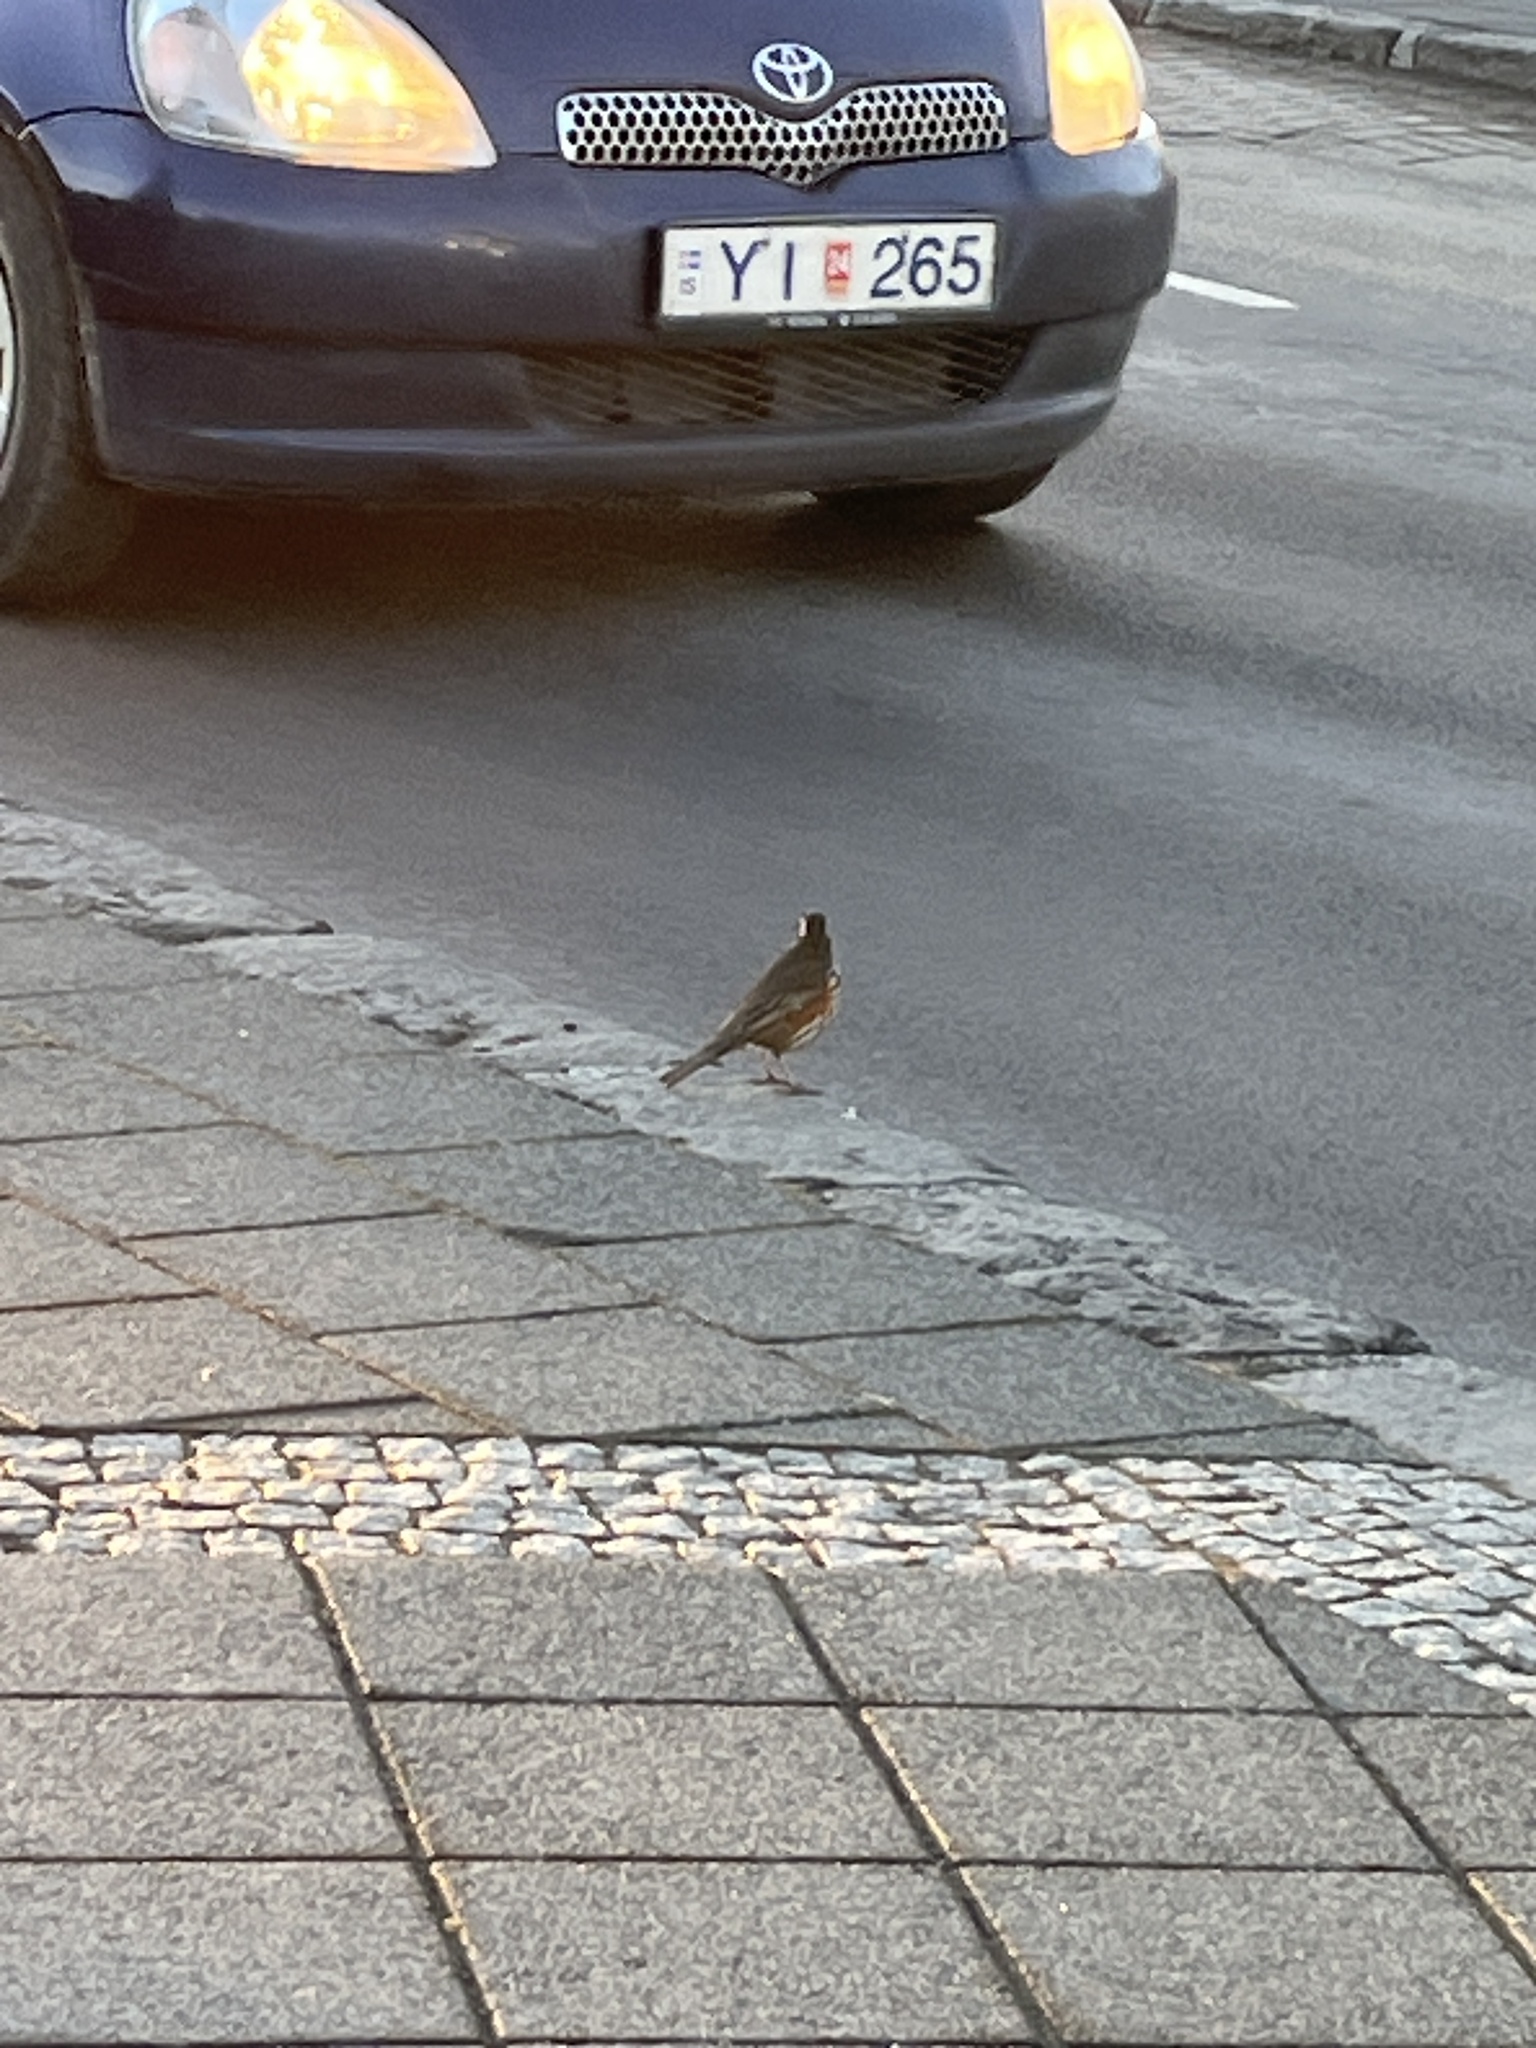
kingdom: Animalia
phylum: Chordata
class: Aves
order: Passeriformes
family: Turdidae
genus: Turdus
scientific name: Turdus iliacus
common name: Redwing
